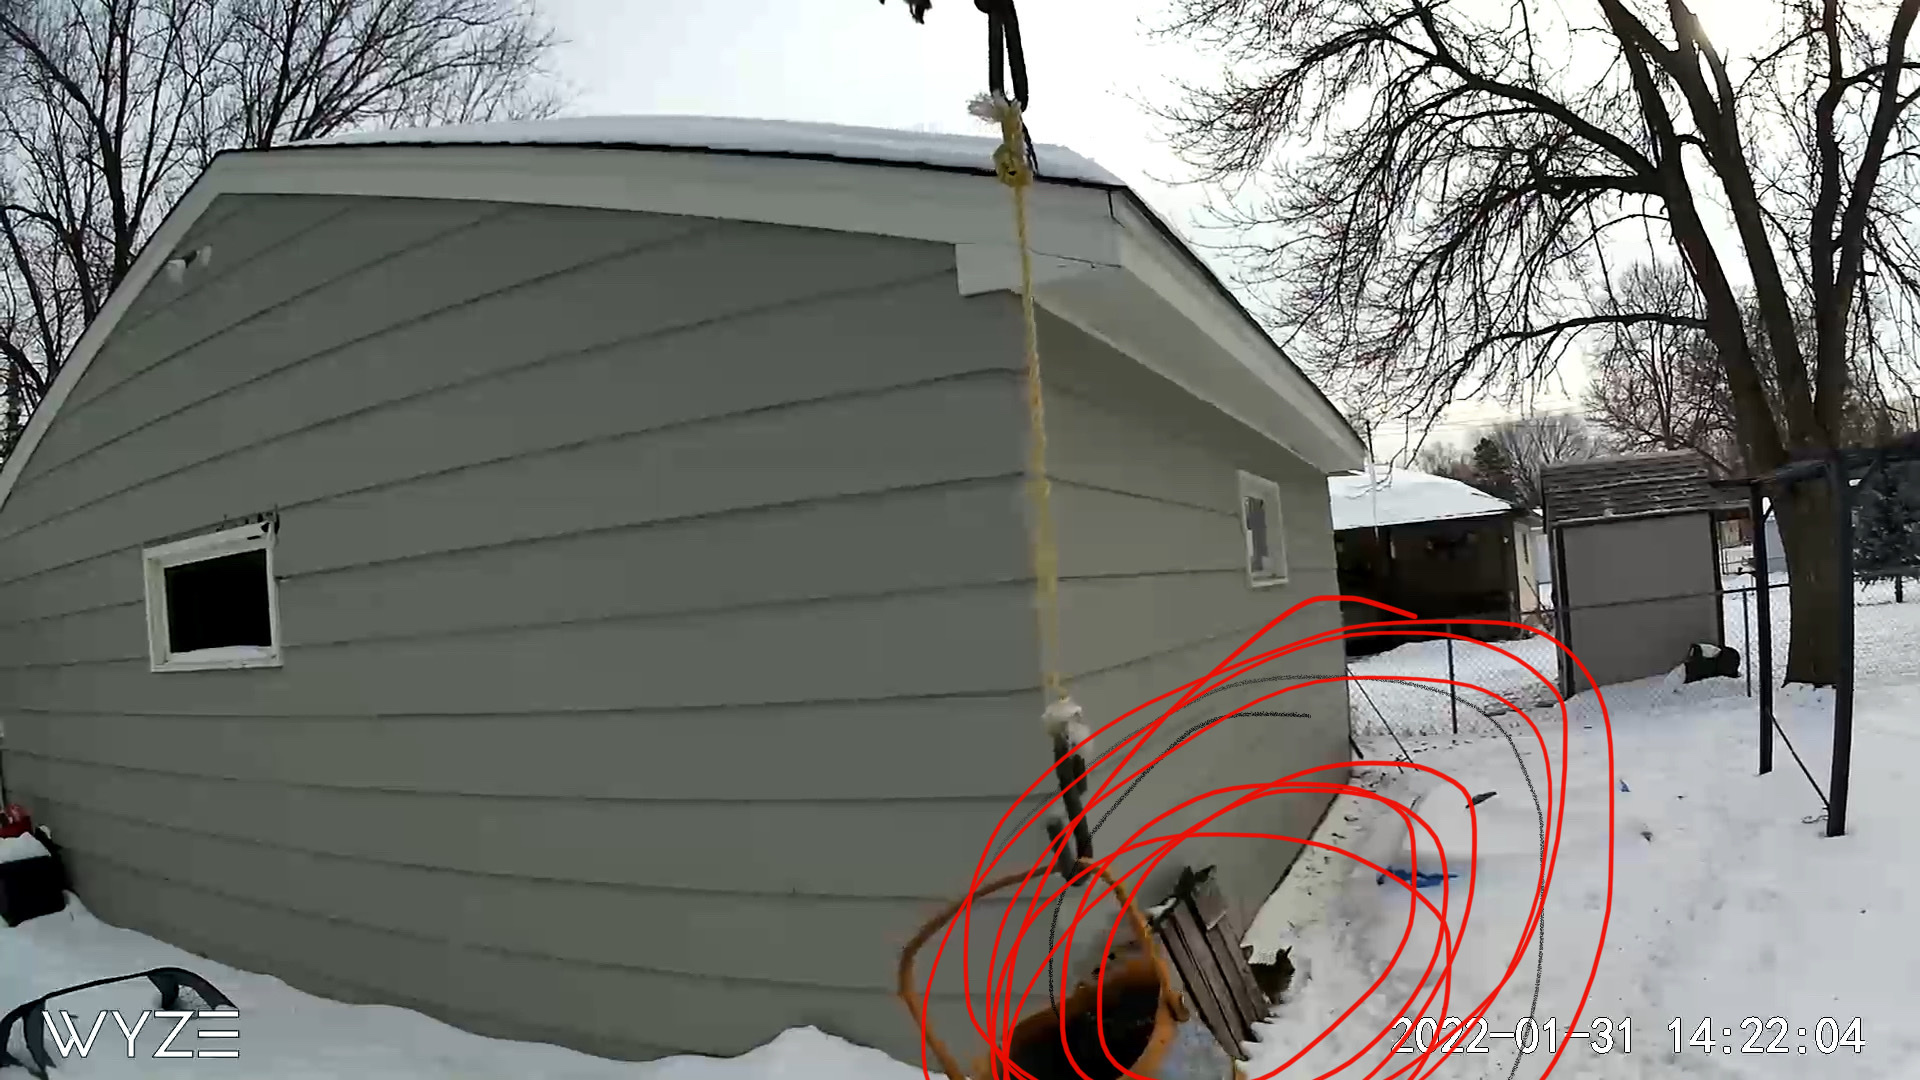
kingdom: Animalia
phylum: Chordata
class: Mammalia
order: Lagomorpha
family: Leporidae
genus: Sylvilagus
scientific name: Sylvilagus floridanus
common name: Eastern cottontail
